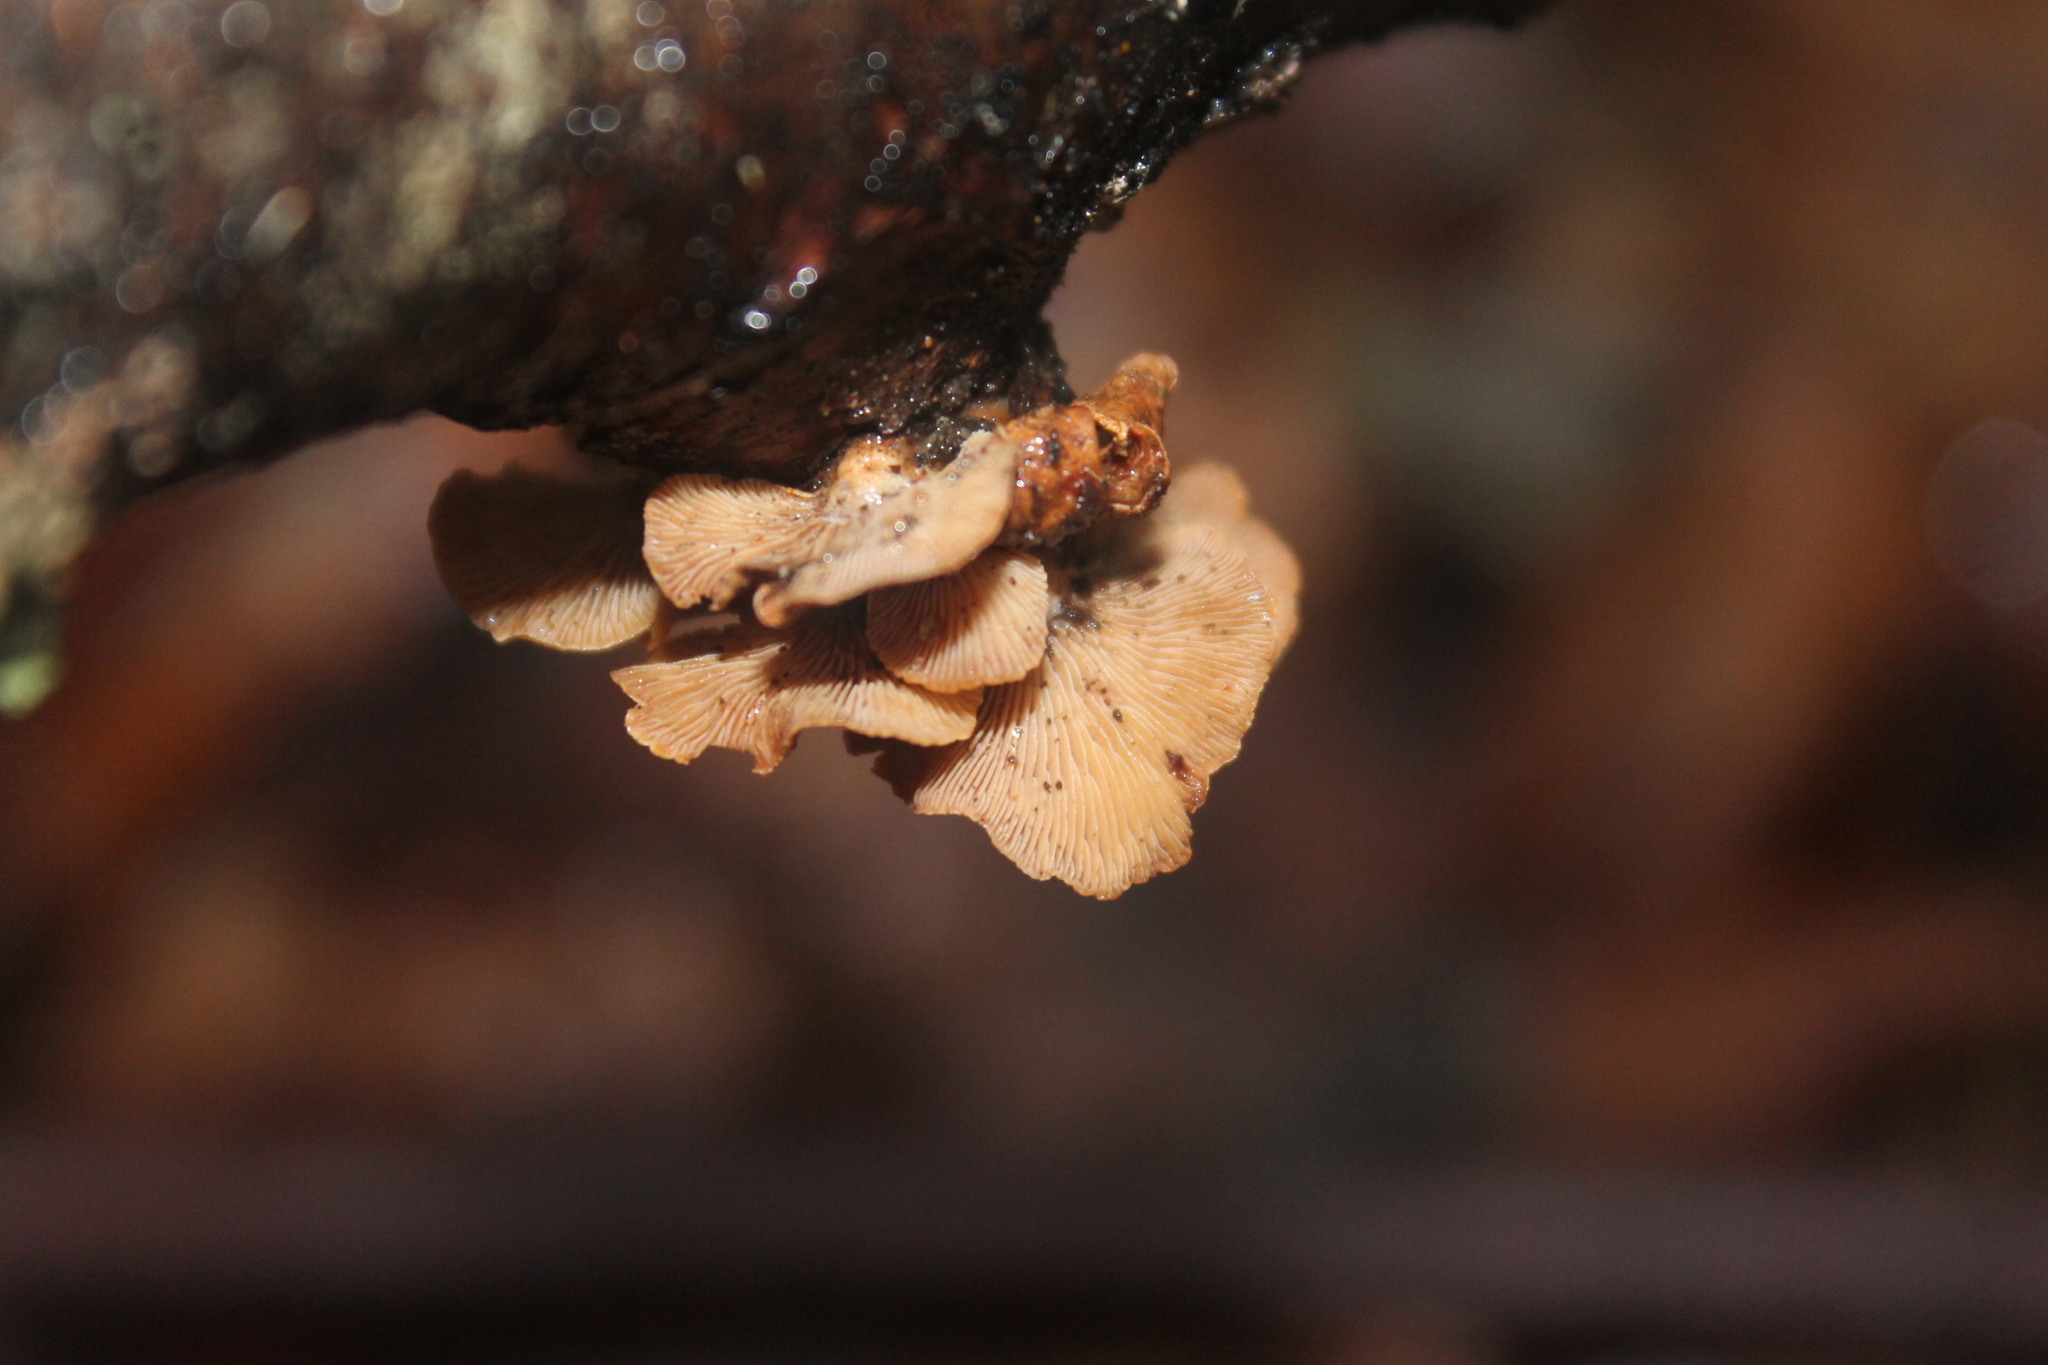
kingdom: Fungi
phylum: Basidiomycota
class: Agaricomycetes
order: Agaricales
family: Mycenaceae
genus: Panellus
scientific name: Panellus stipticus
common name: Bitter oysterling
